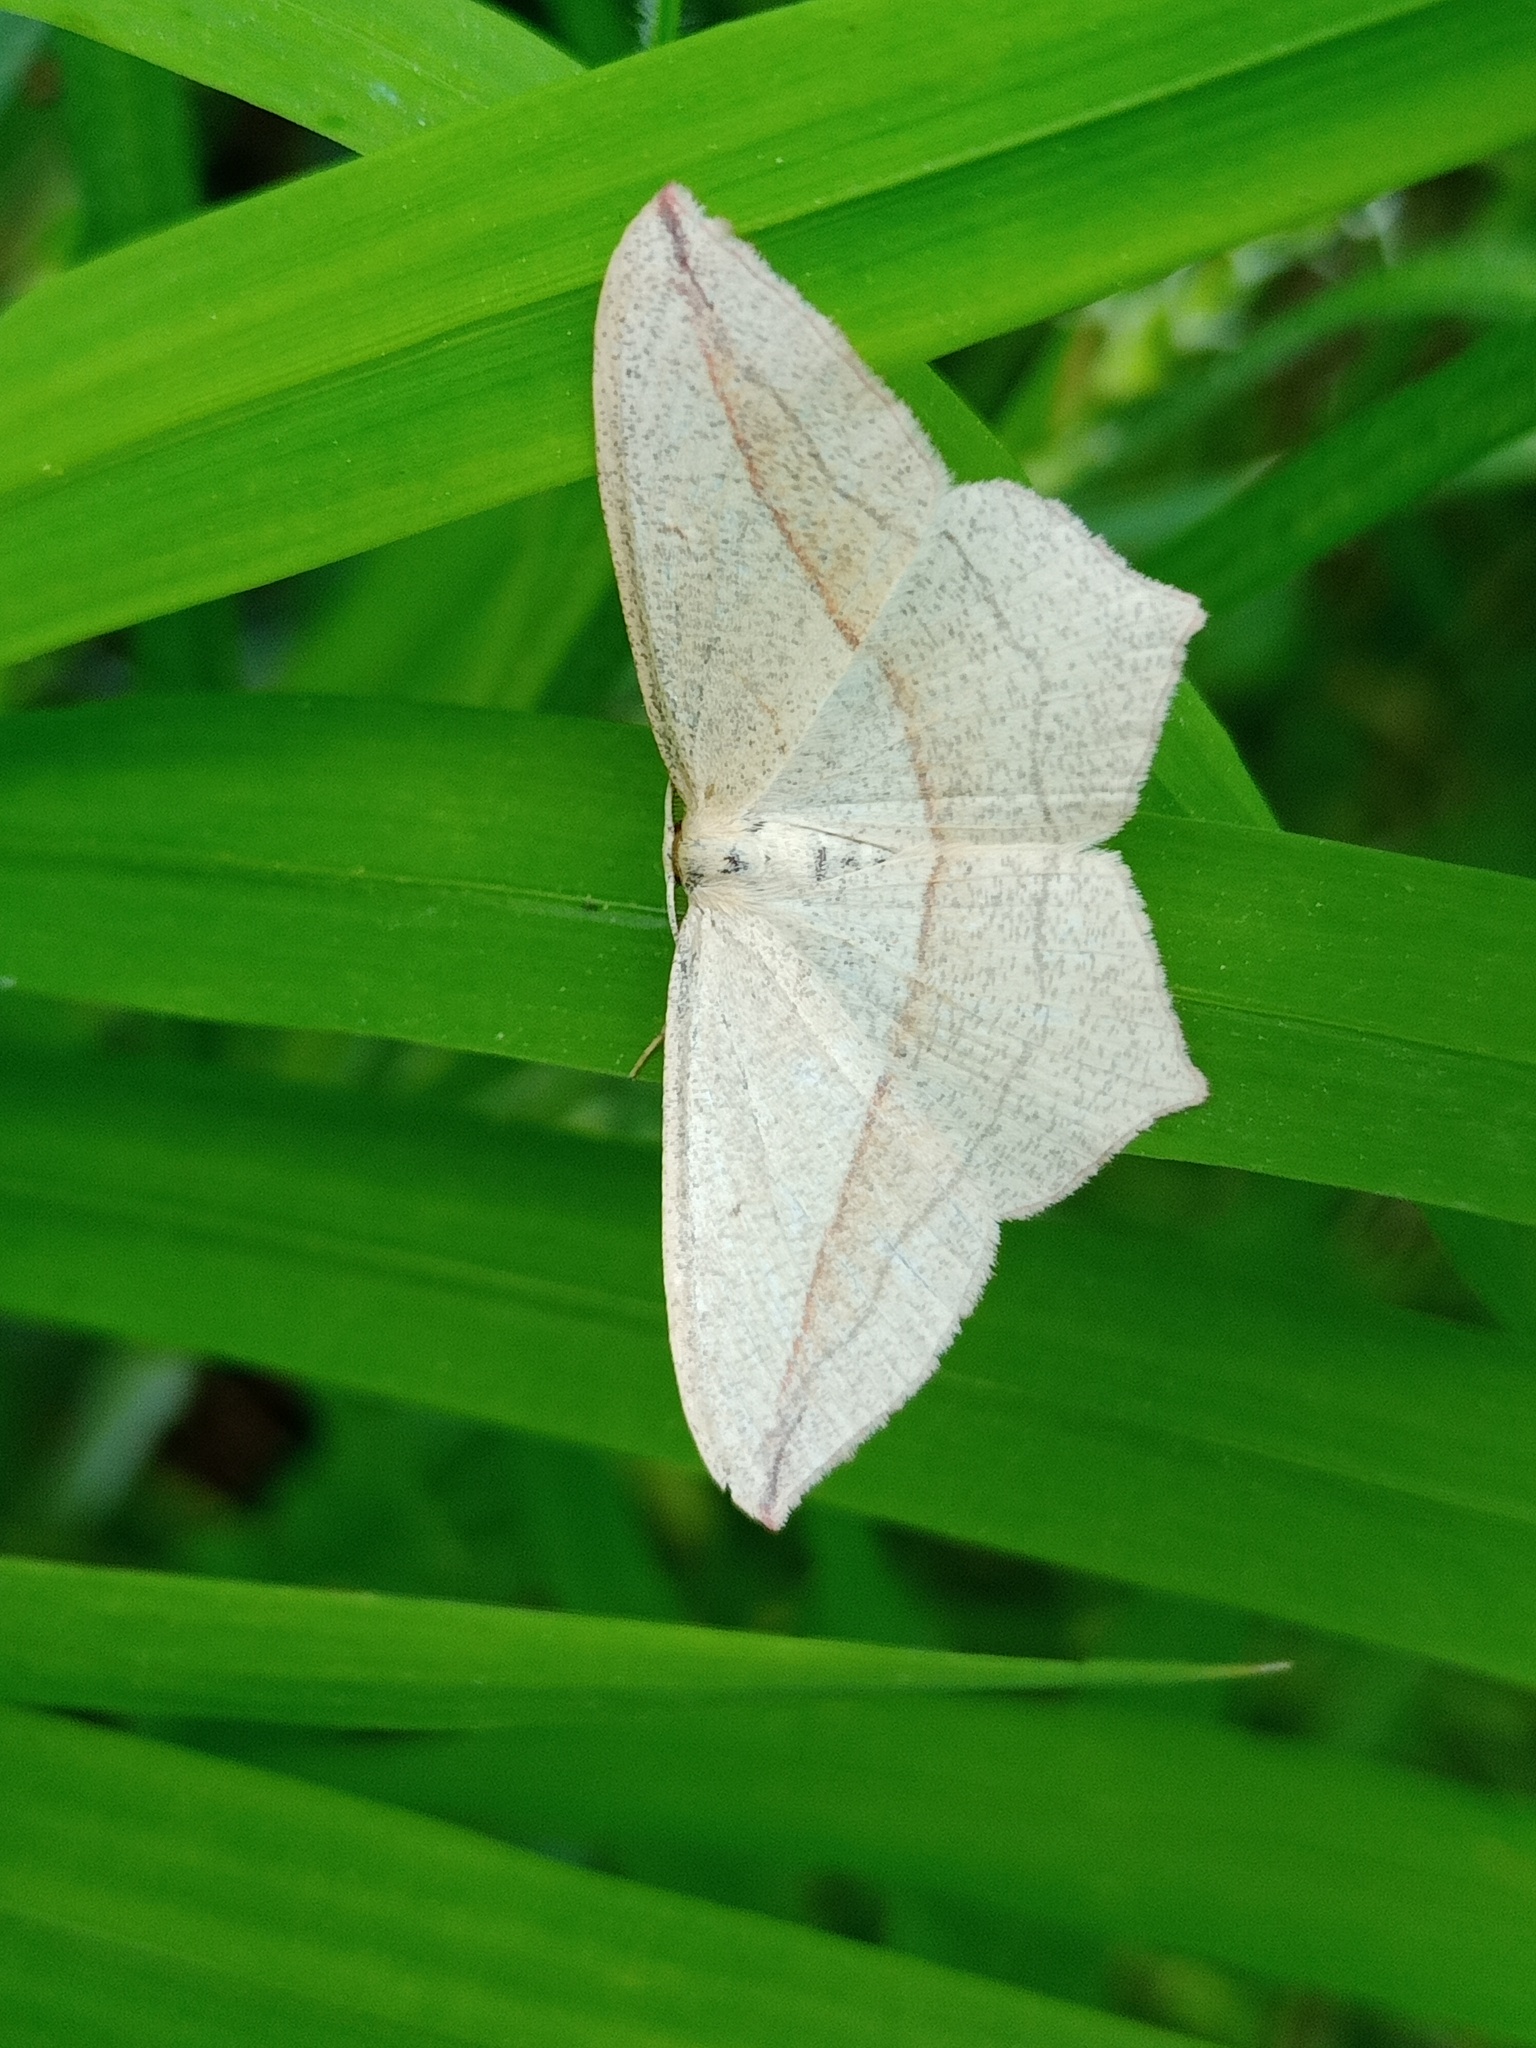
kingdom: Animalia
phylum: Arthropoda
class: Insecta
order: Lepidoptera
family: Geometridae
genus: Timandra
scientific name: Timandra comae
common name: Blood-vein
